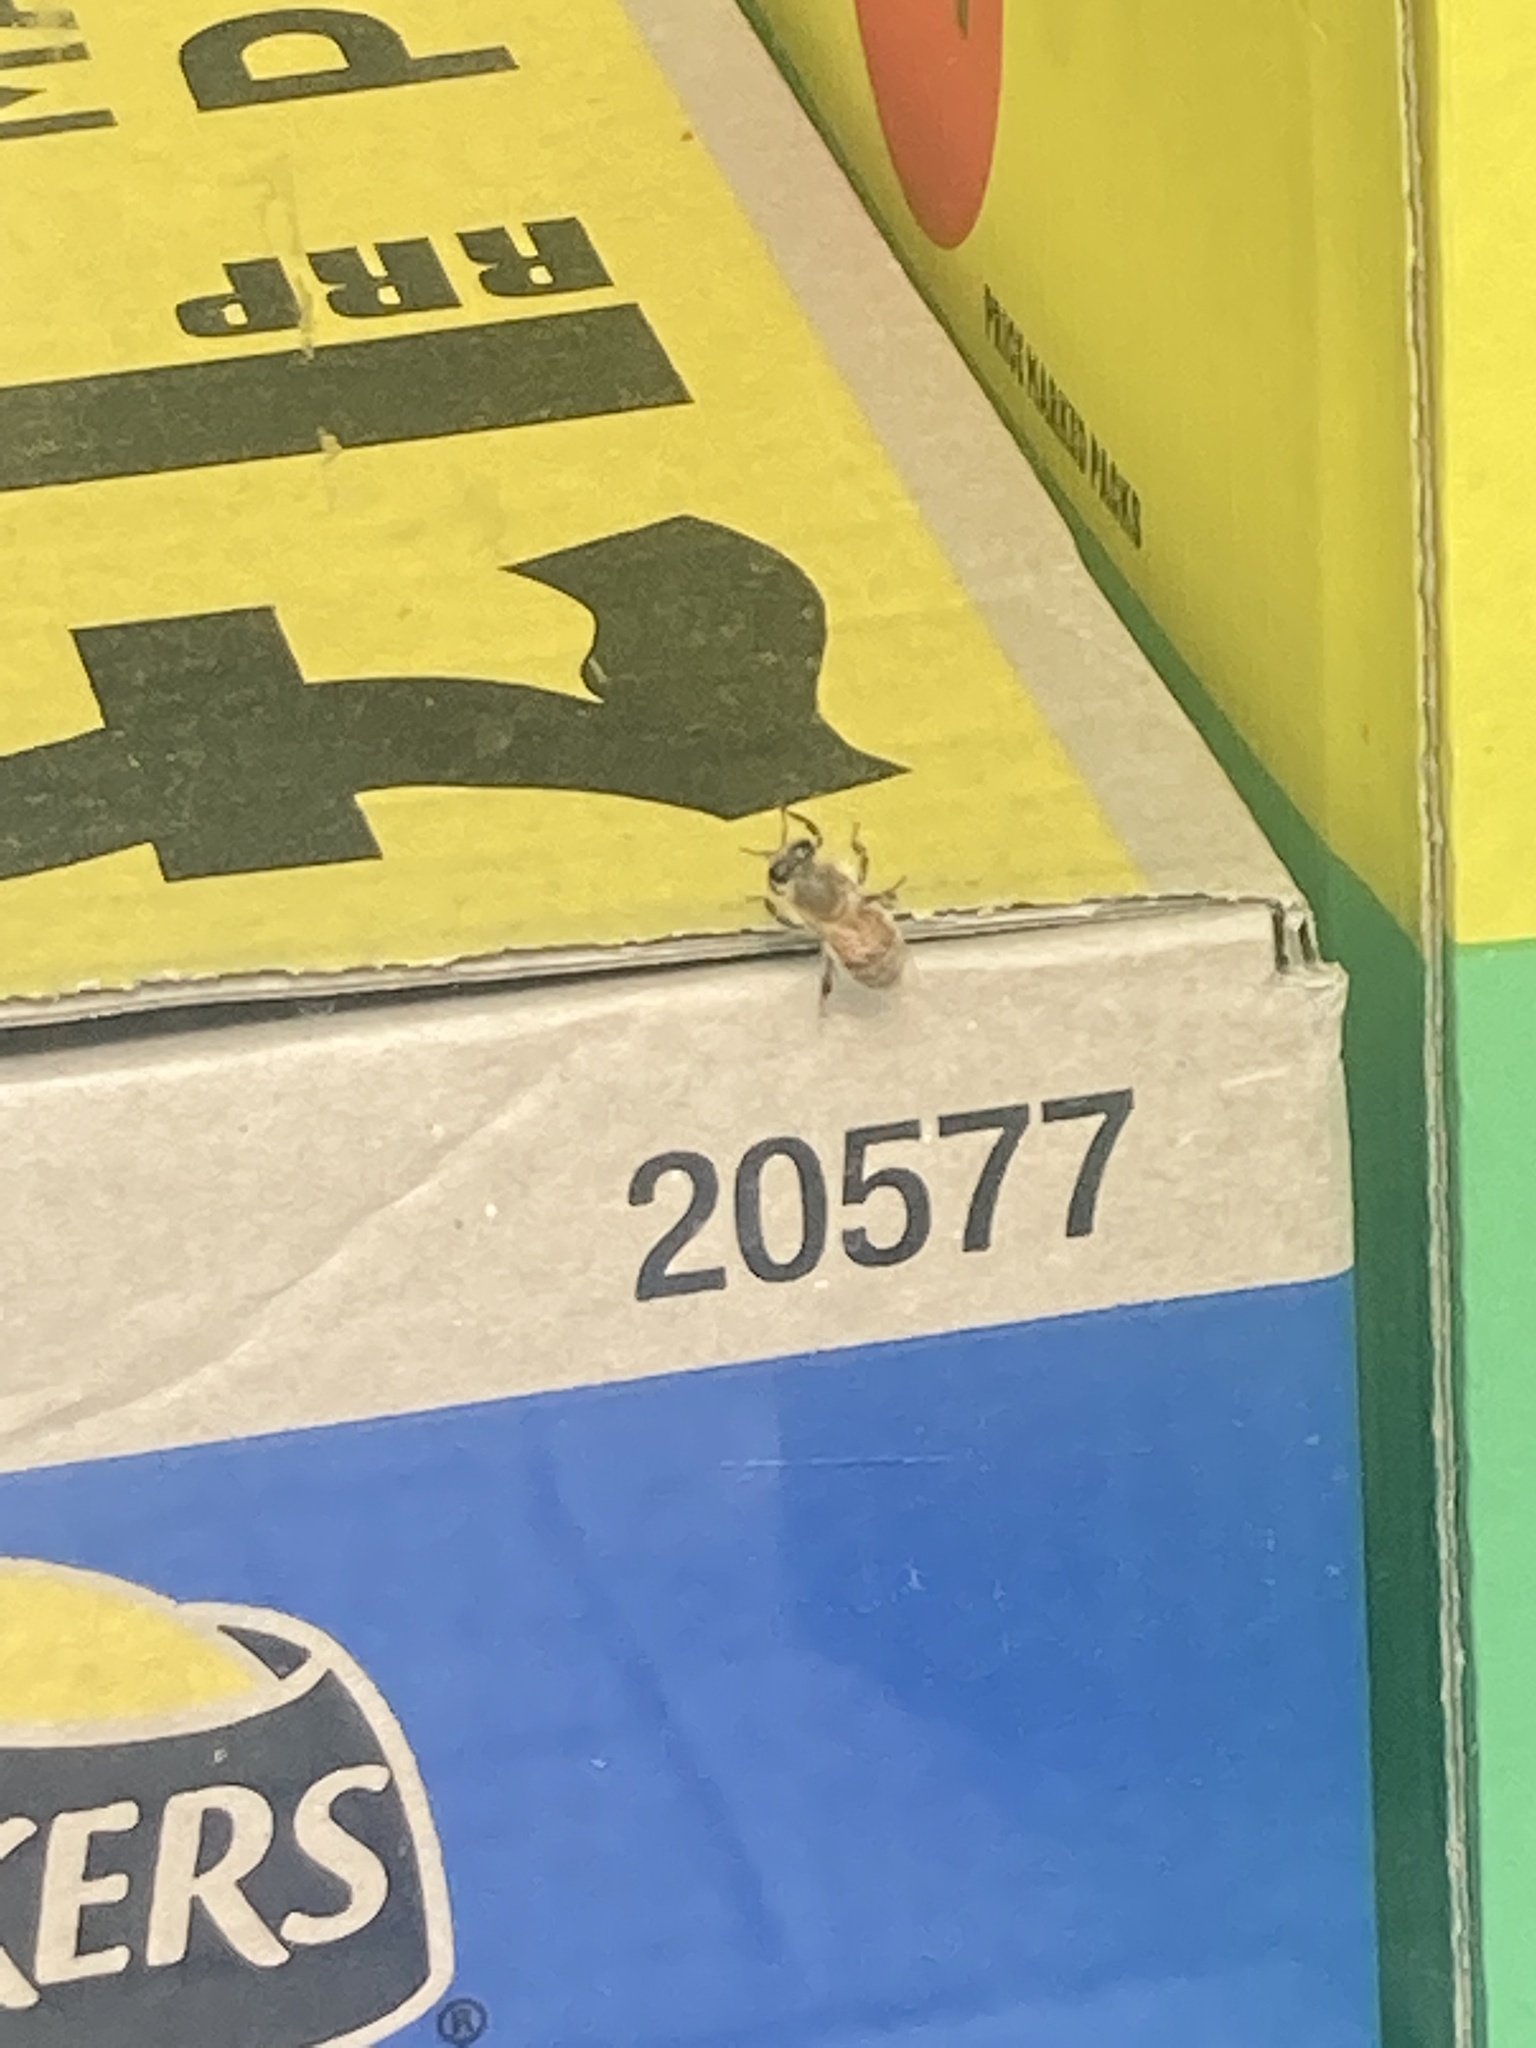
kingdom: Animalia
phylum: Arthropoda
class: Insecta
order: Hymenoptera
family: Apidae
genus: Apis
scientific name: Apis mellifera
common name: Honey bee
